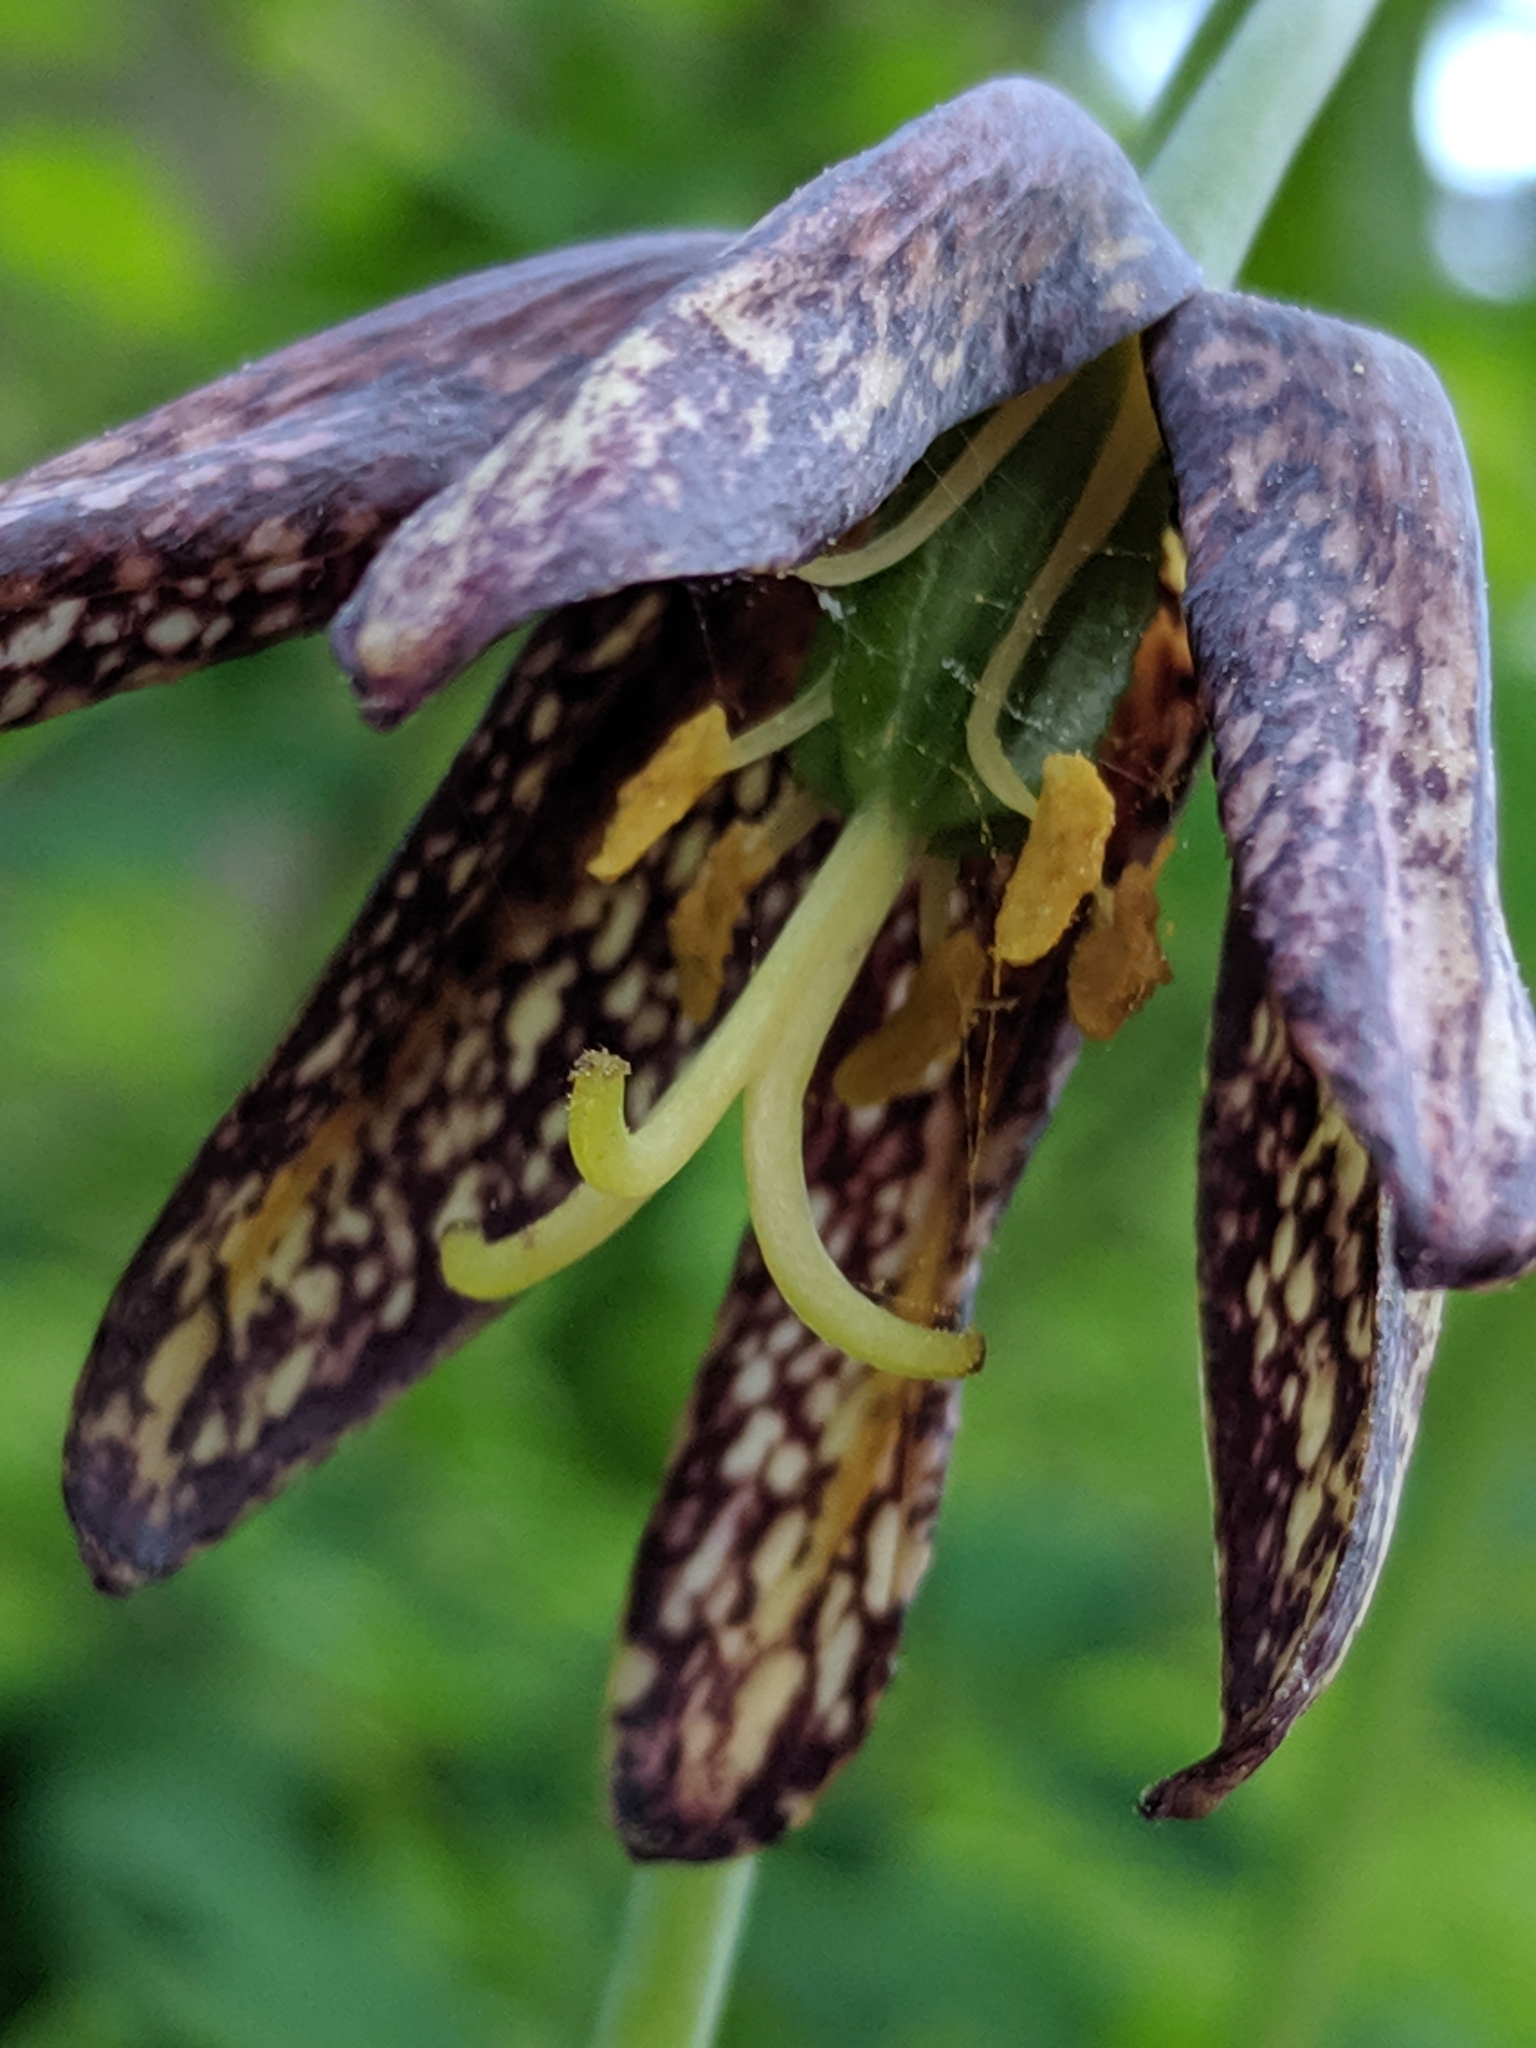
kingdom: Plantae
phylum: Tracheophyta
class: Liliopsida
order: Liliales
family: Liliaceae
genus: Fritillaria
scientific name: Fritillaria affinis
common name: Ojai fritillary
